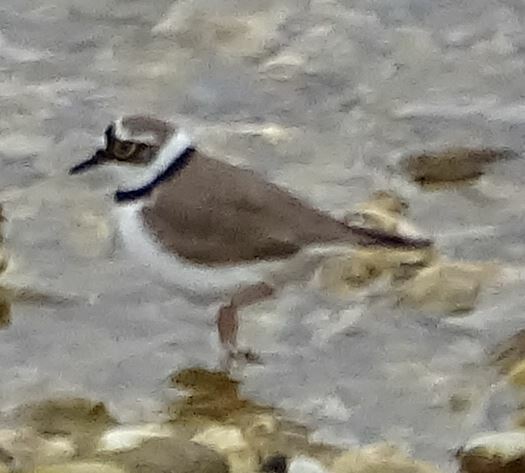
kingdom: Animalia
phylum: Chordata
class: Aves
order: Charadriiformes
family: Charadriidae
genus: Charadrius
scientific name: Charadrius dubius
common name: Little ringed plover
